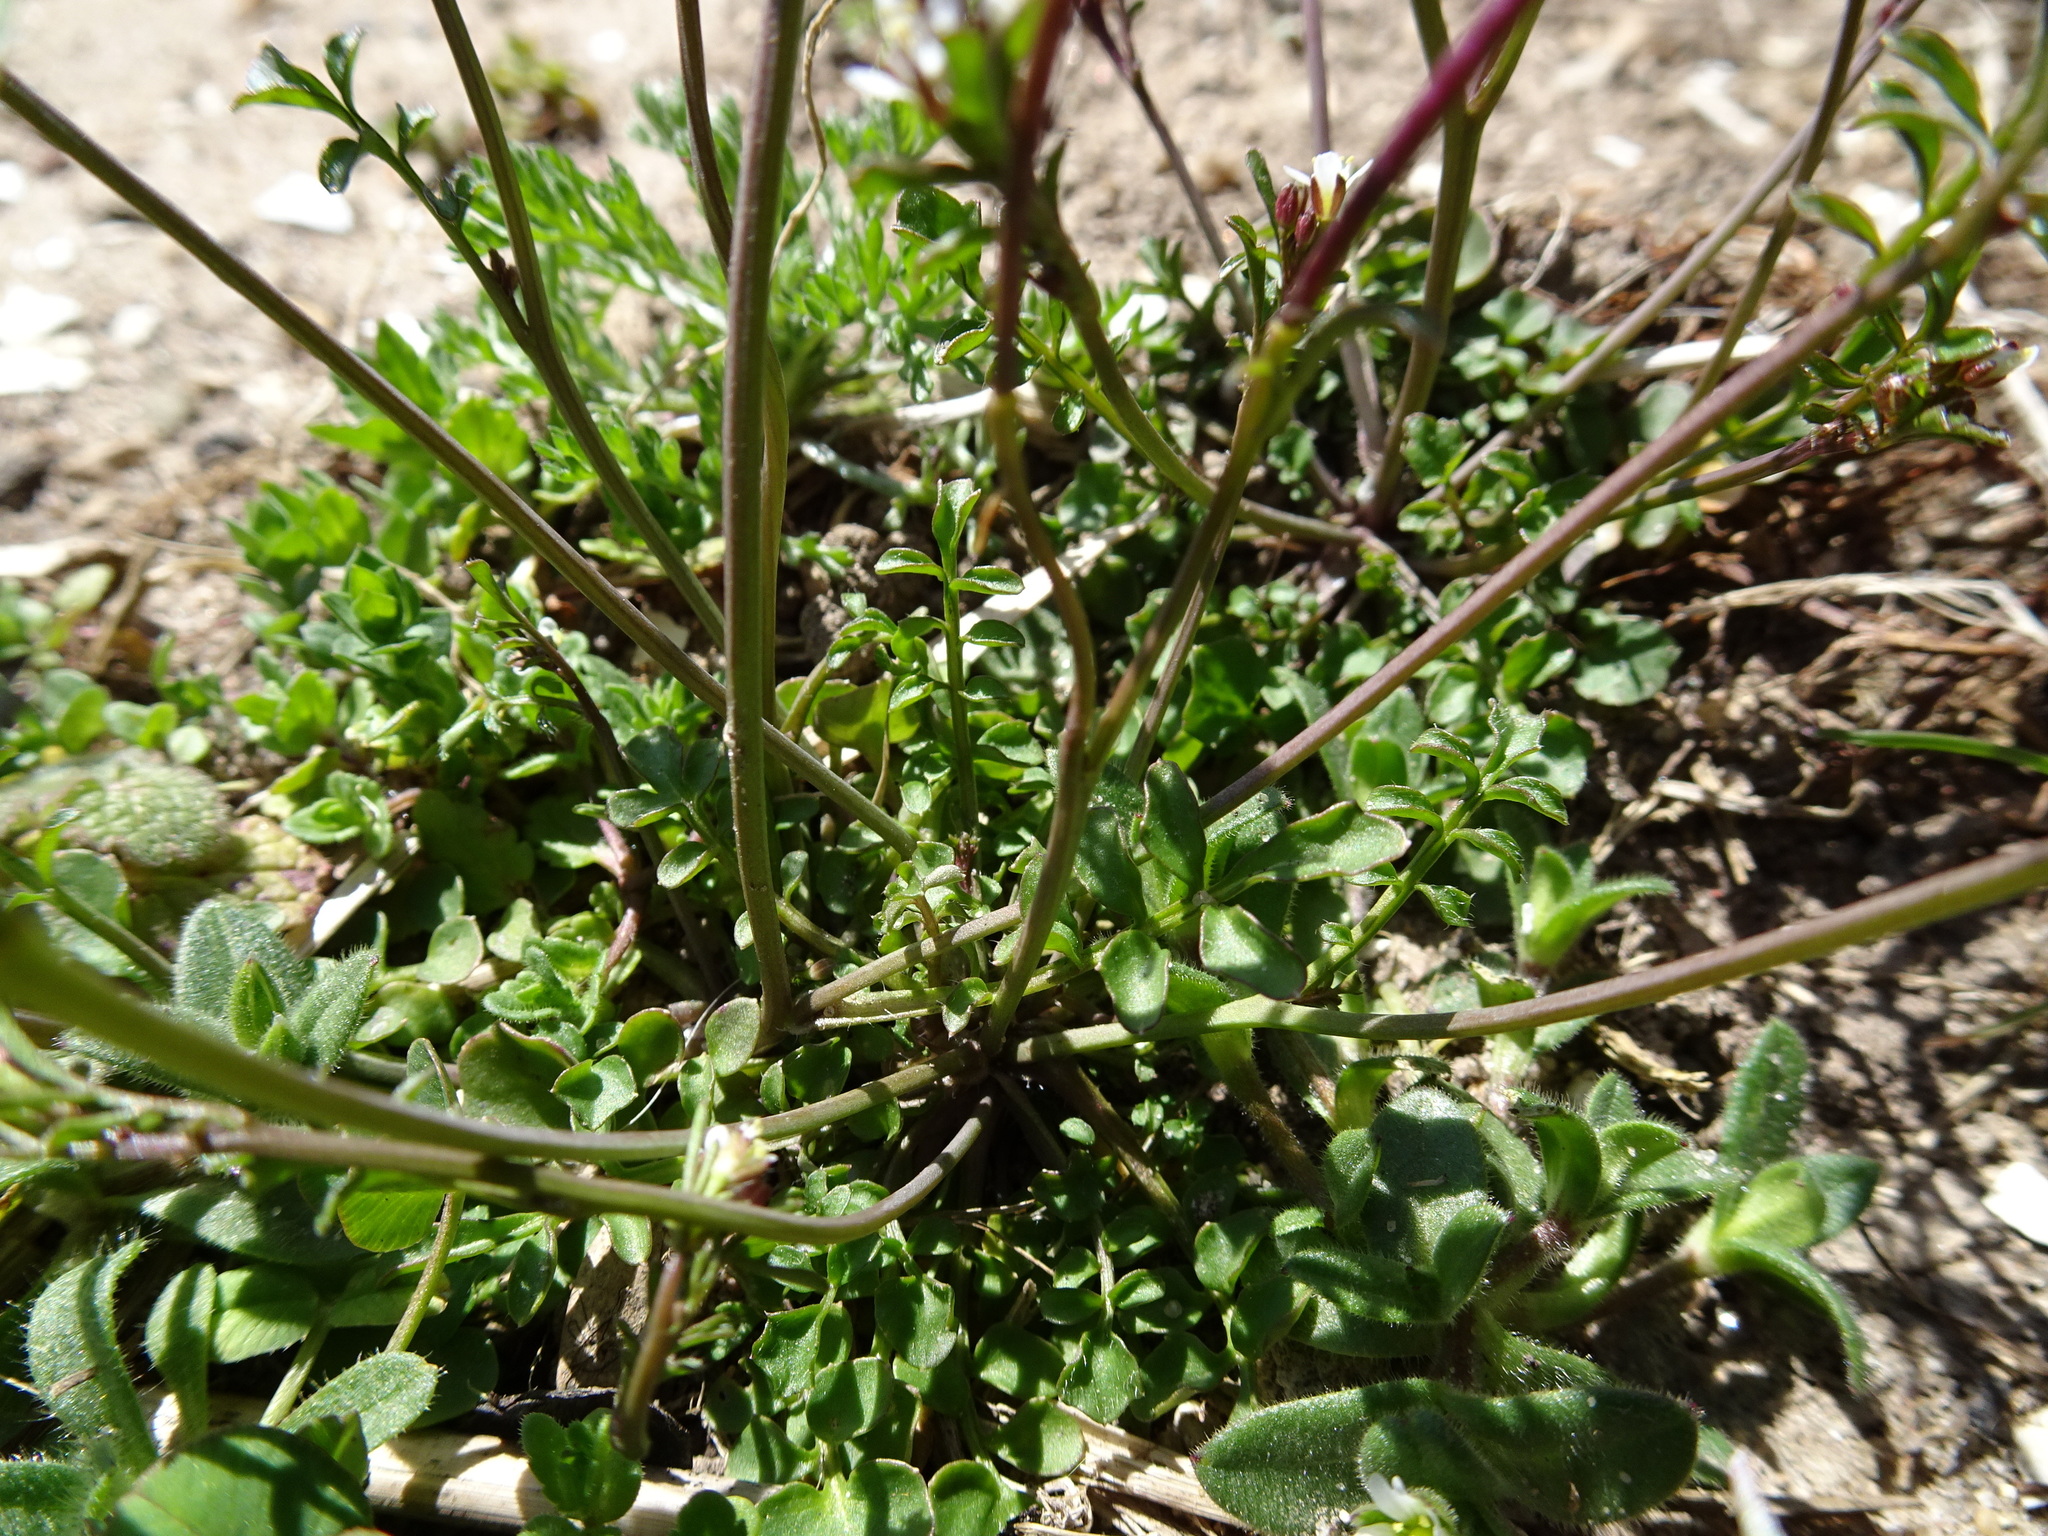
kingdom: Plantae
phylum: Tracheophyta
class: Magnoliopsida
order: Brassicales
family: Brassicaceae
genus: Cardamine
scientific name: Cardamine hirsuta
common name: Hairy bittercress
